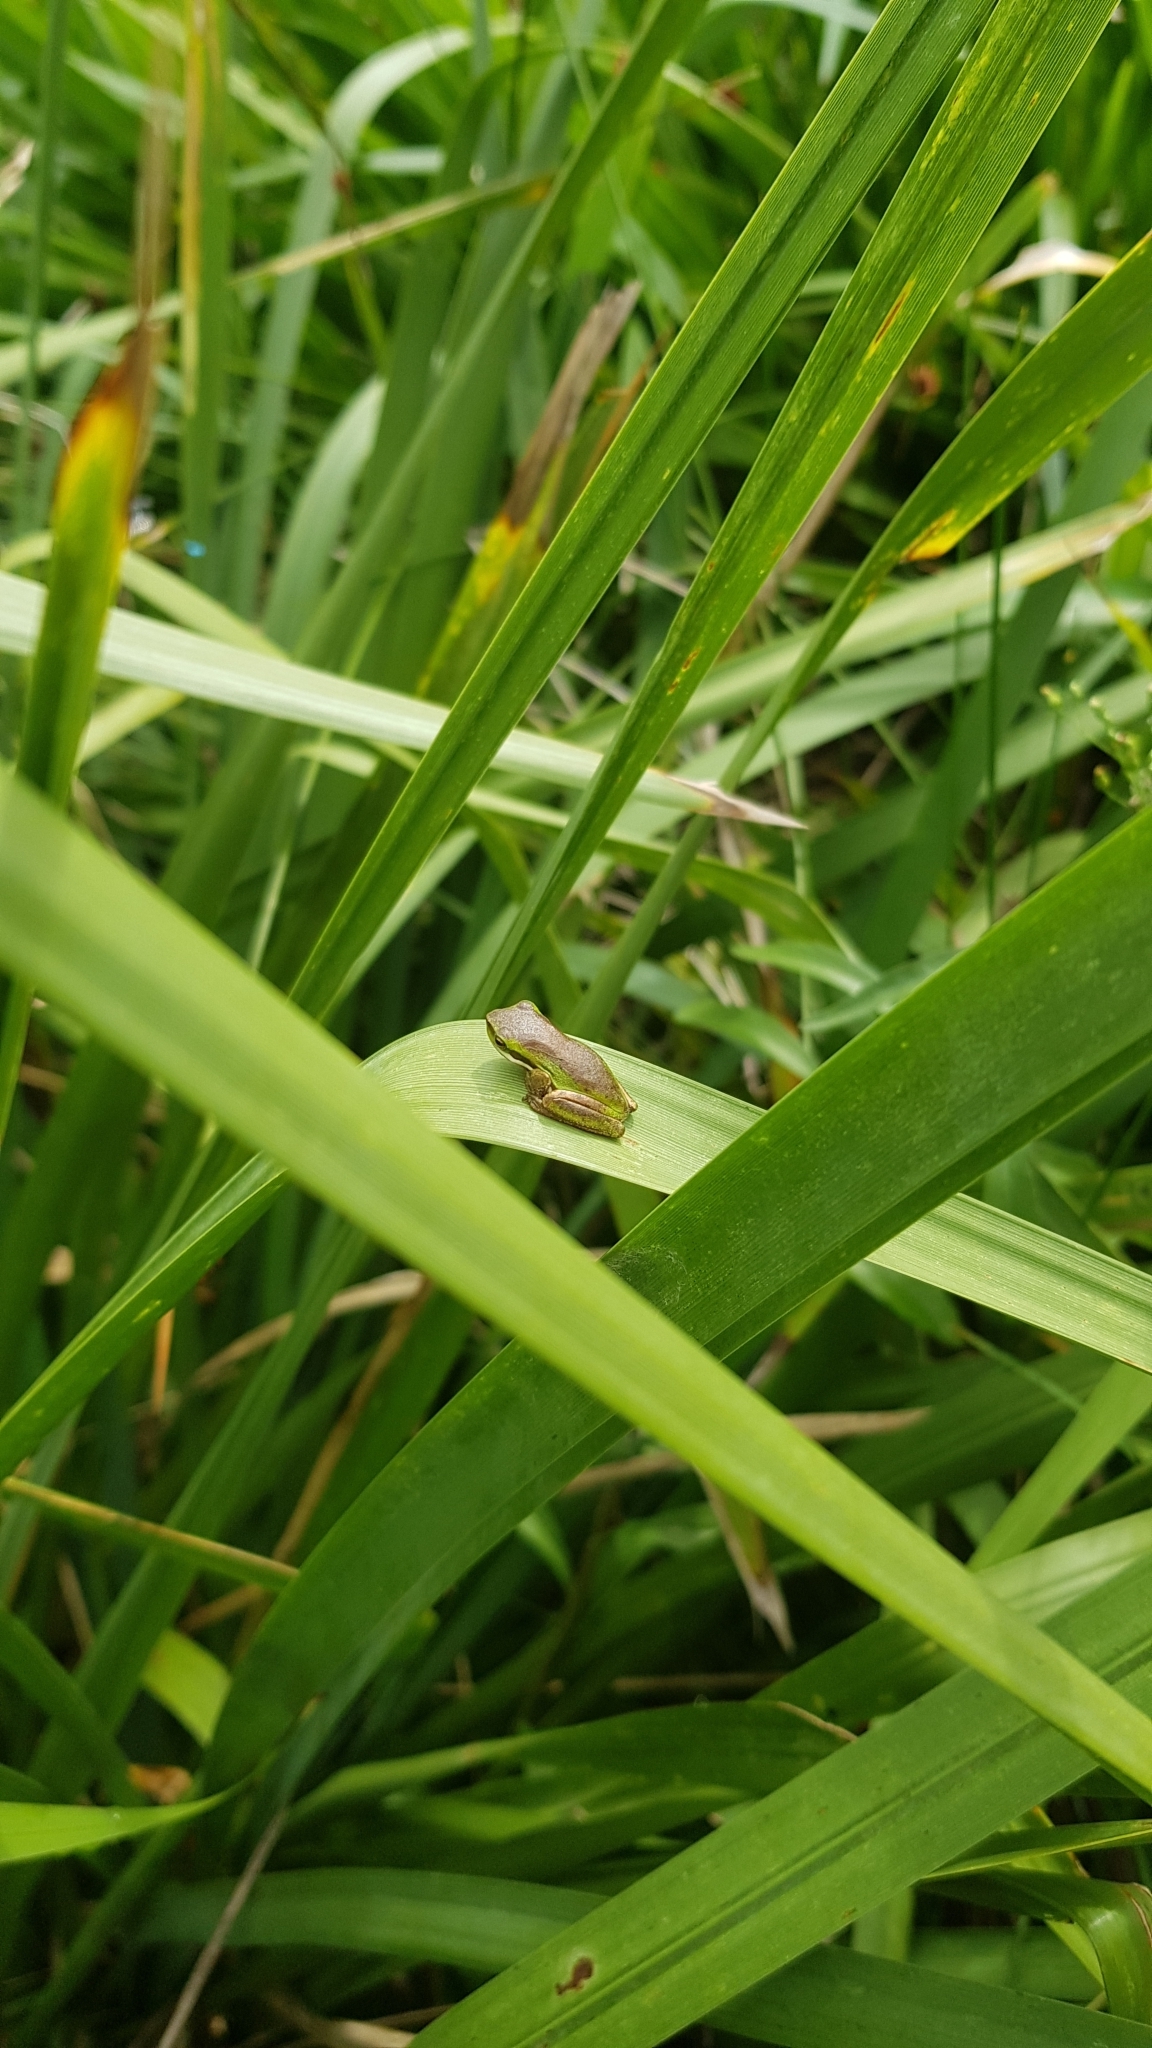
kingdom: Animalia
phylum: Chordata
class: Amphibia
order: Anura
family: Pelodryadidae
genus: Litoria
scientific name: Litoria fallax
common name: Eastern dwarf treefrog
